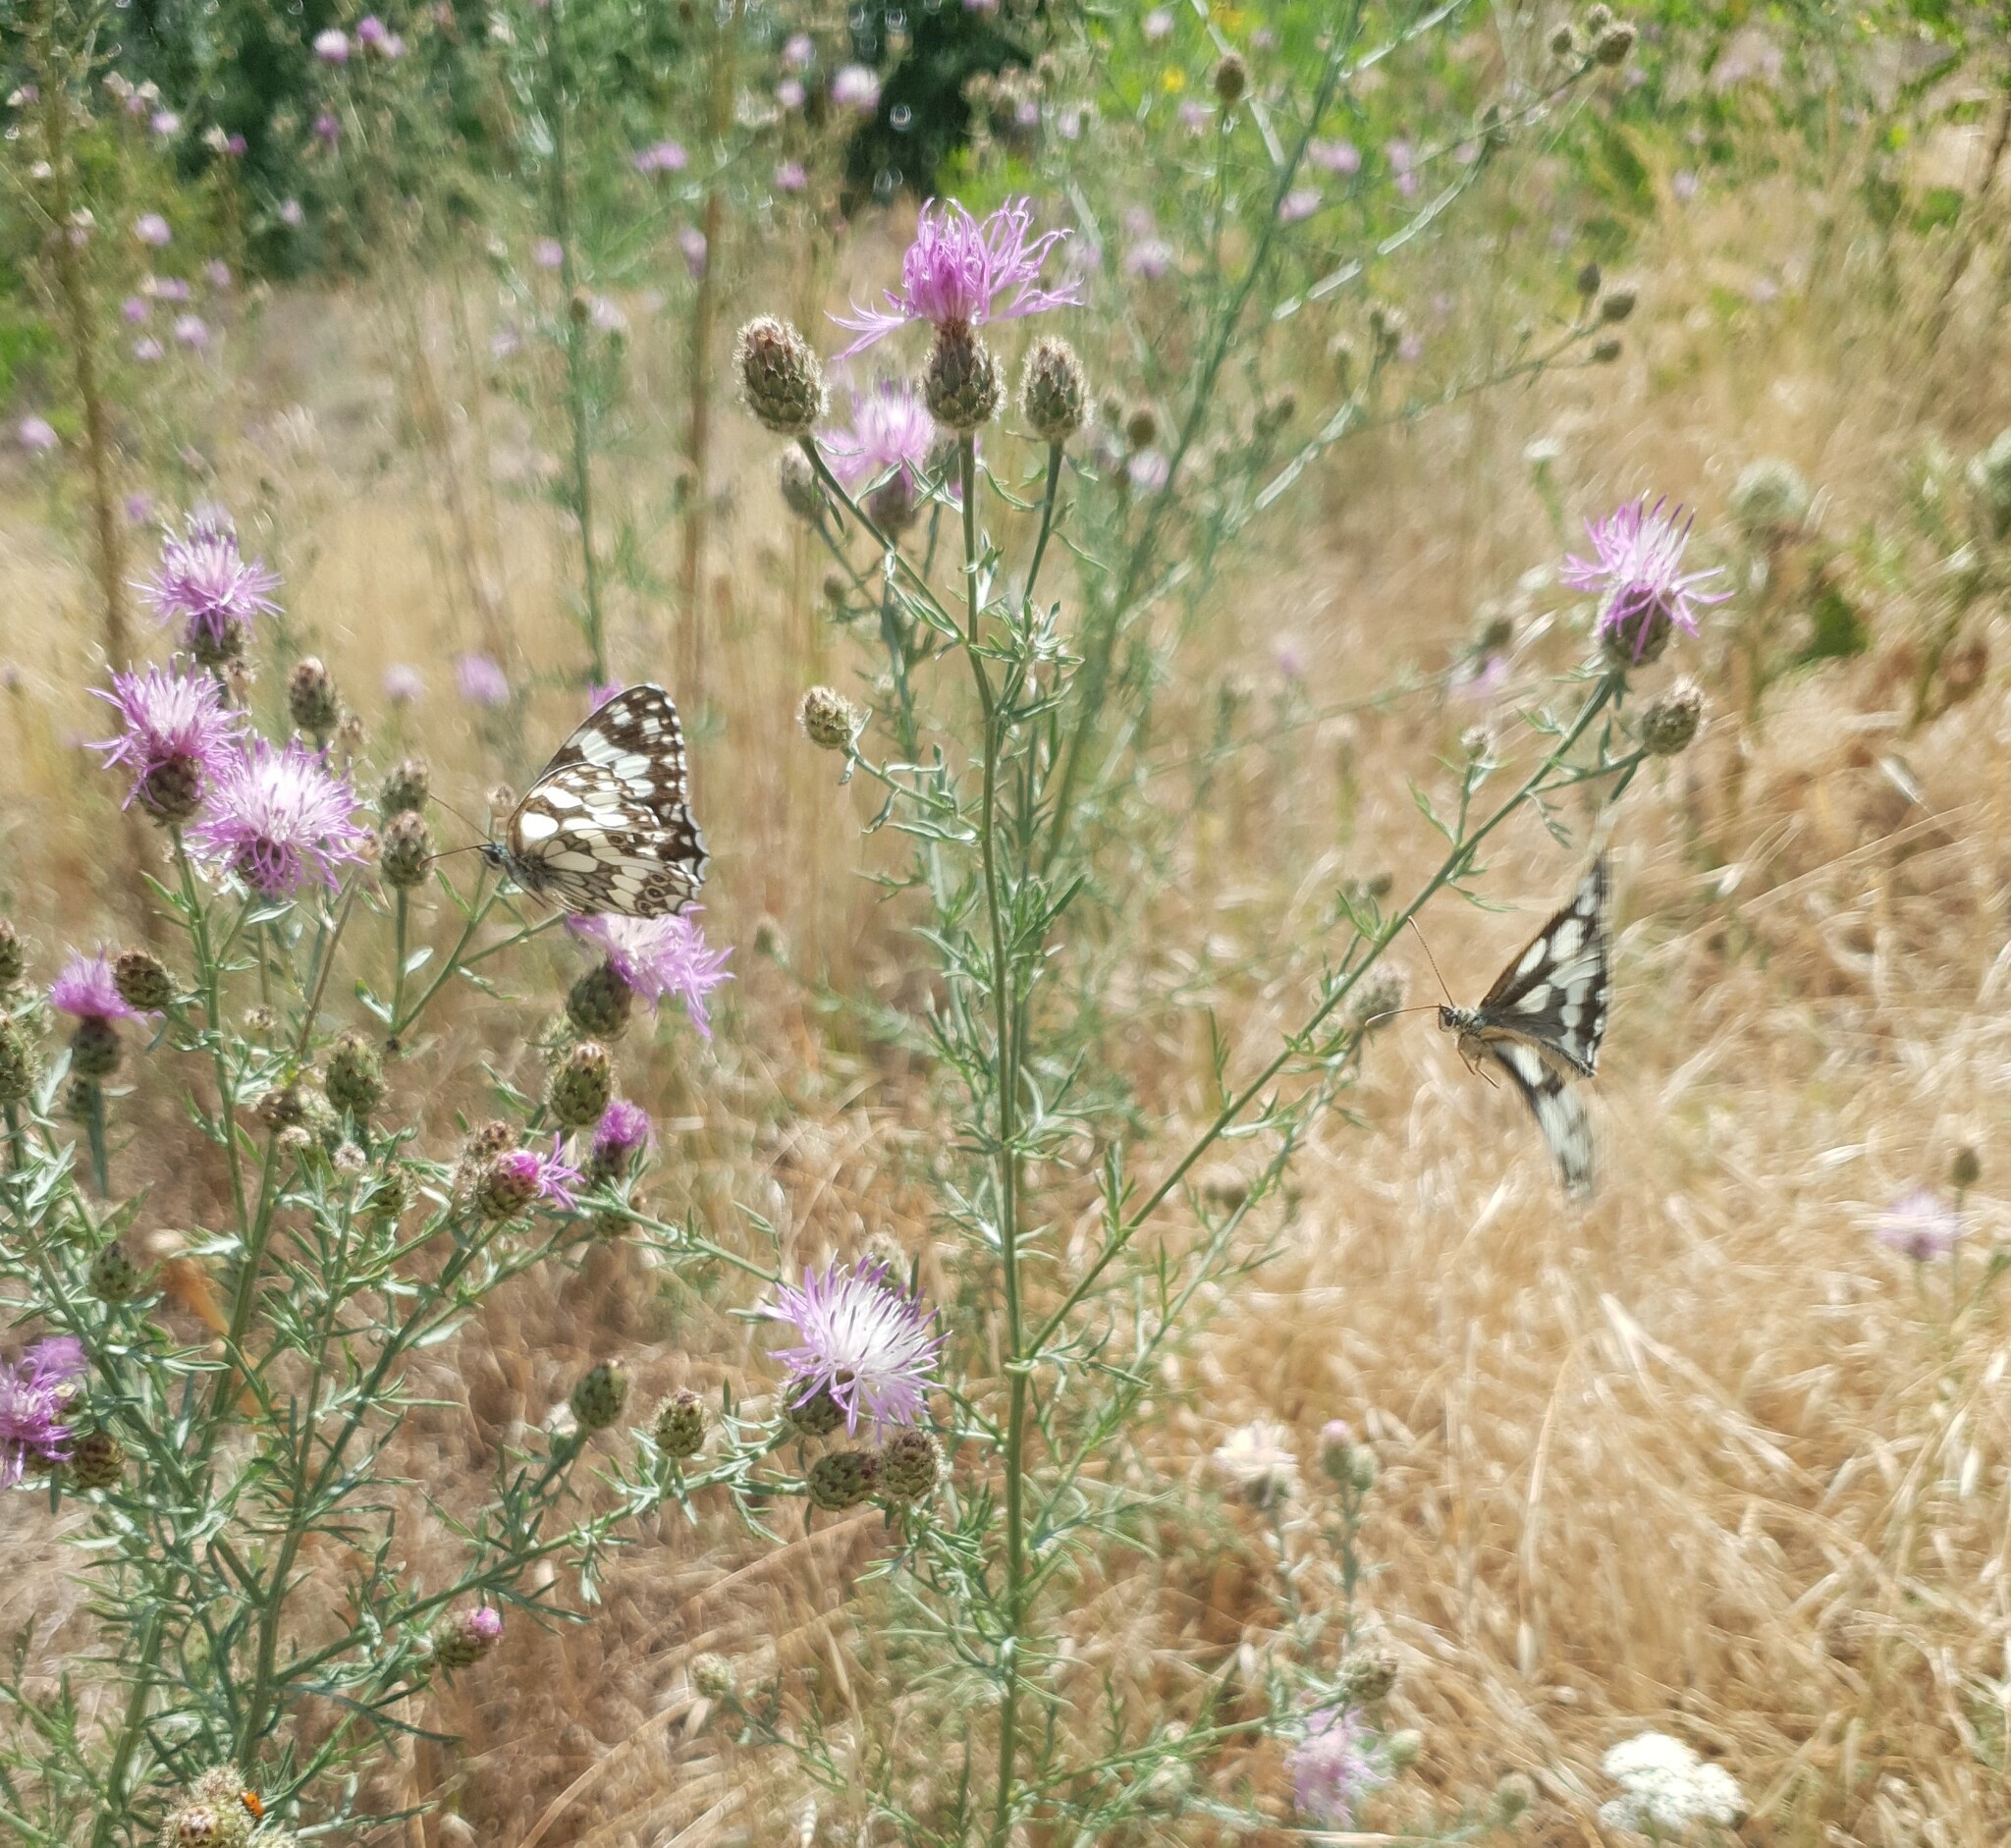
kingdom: Animalia
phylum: Arthropoda
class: Insecta
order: Lepidoptera
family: Nymphalidae
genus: Melanargia
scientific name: Melanargia galathea
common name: Marbled white
